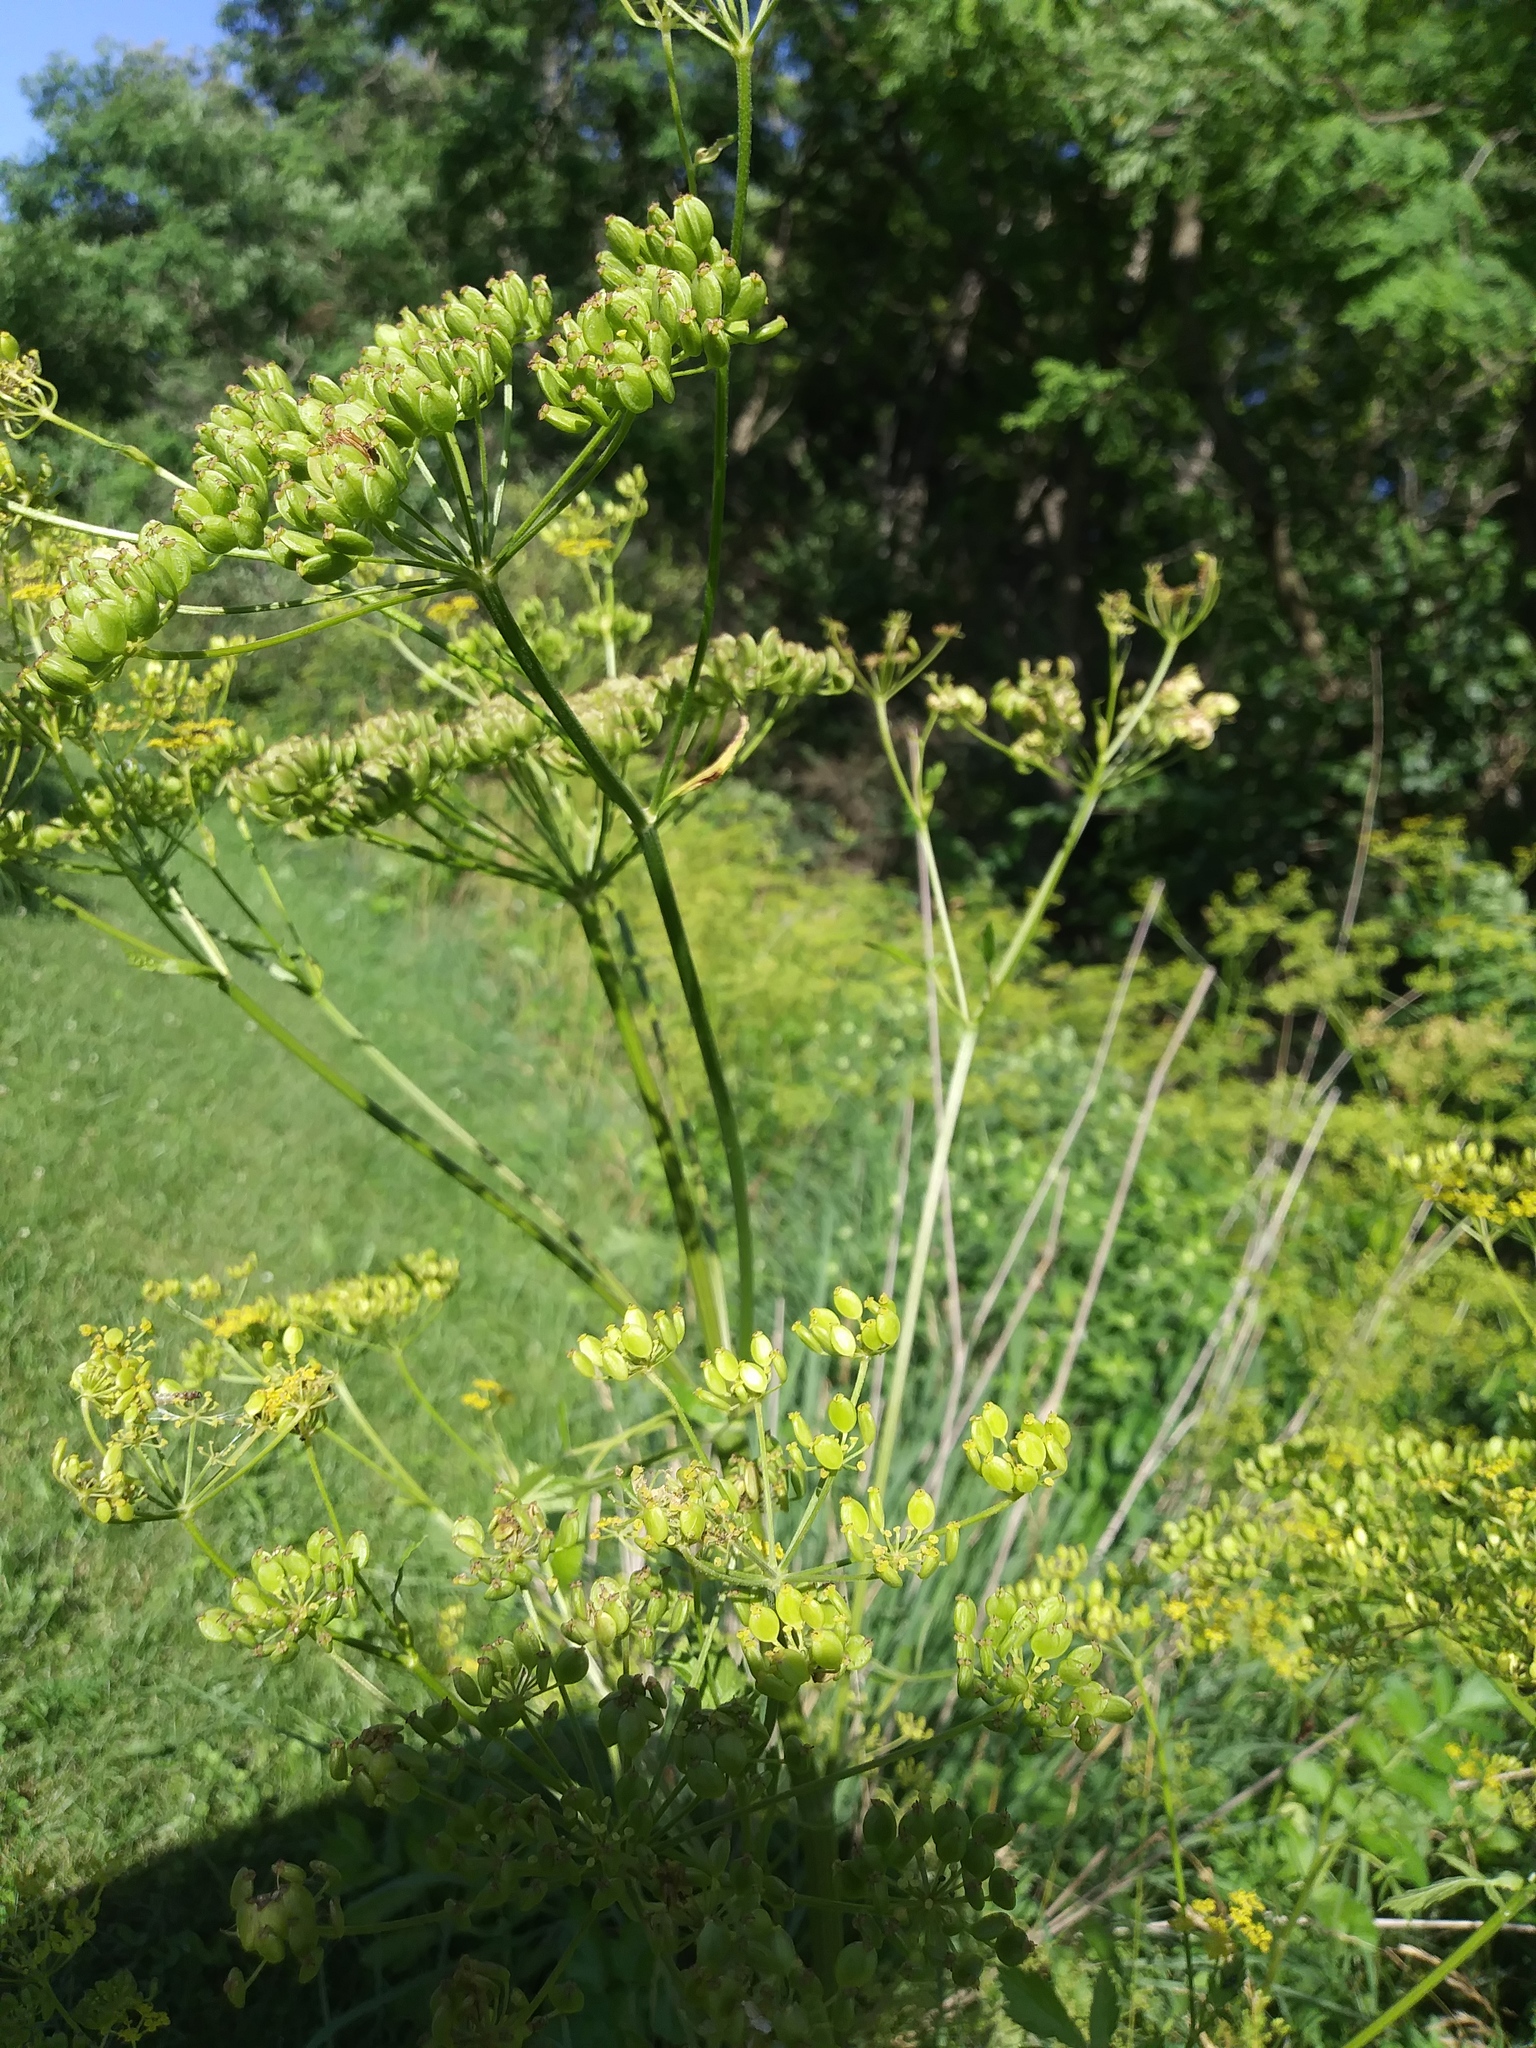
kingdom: Plantae
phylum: Tracheophyta
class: Magnoliopsida
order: Apiales
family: Apiaceae
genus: Pastinaca
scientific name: Pastinaca sativa
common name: Wild parsnip
